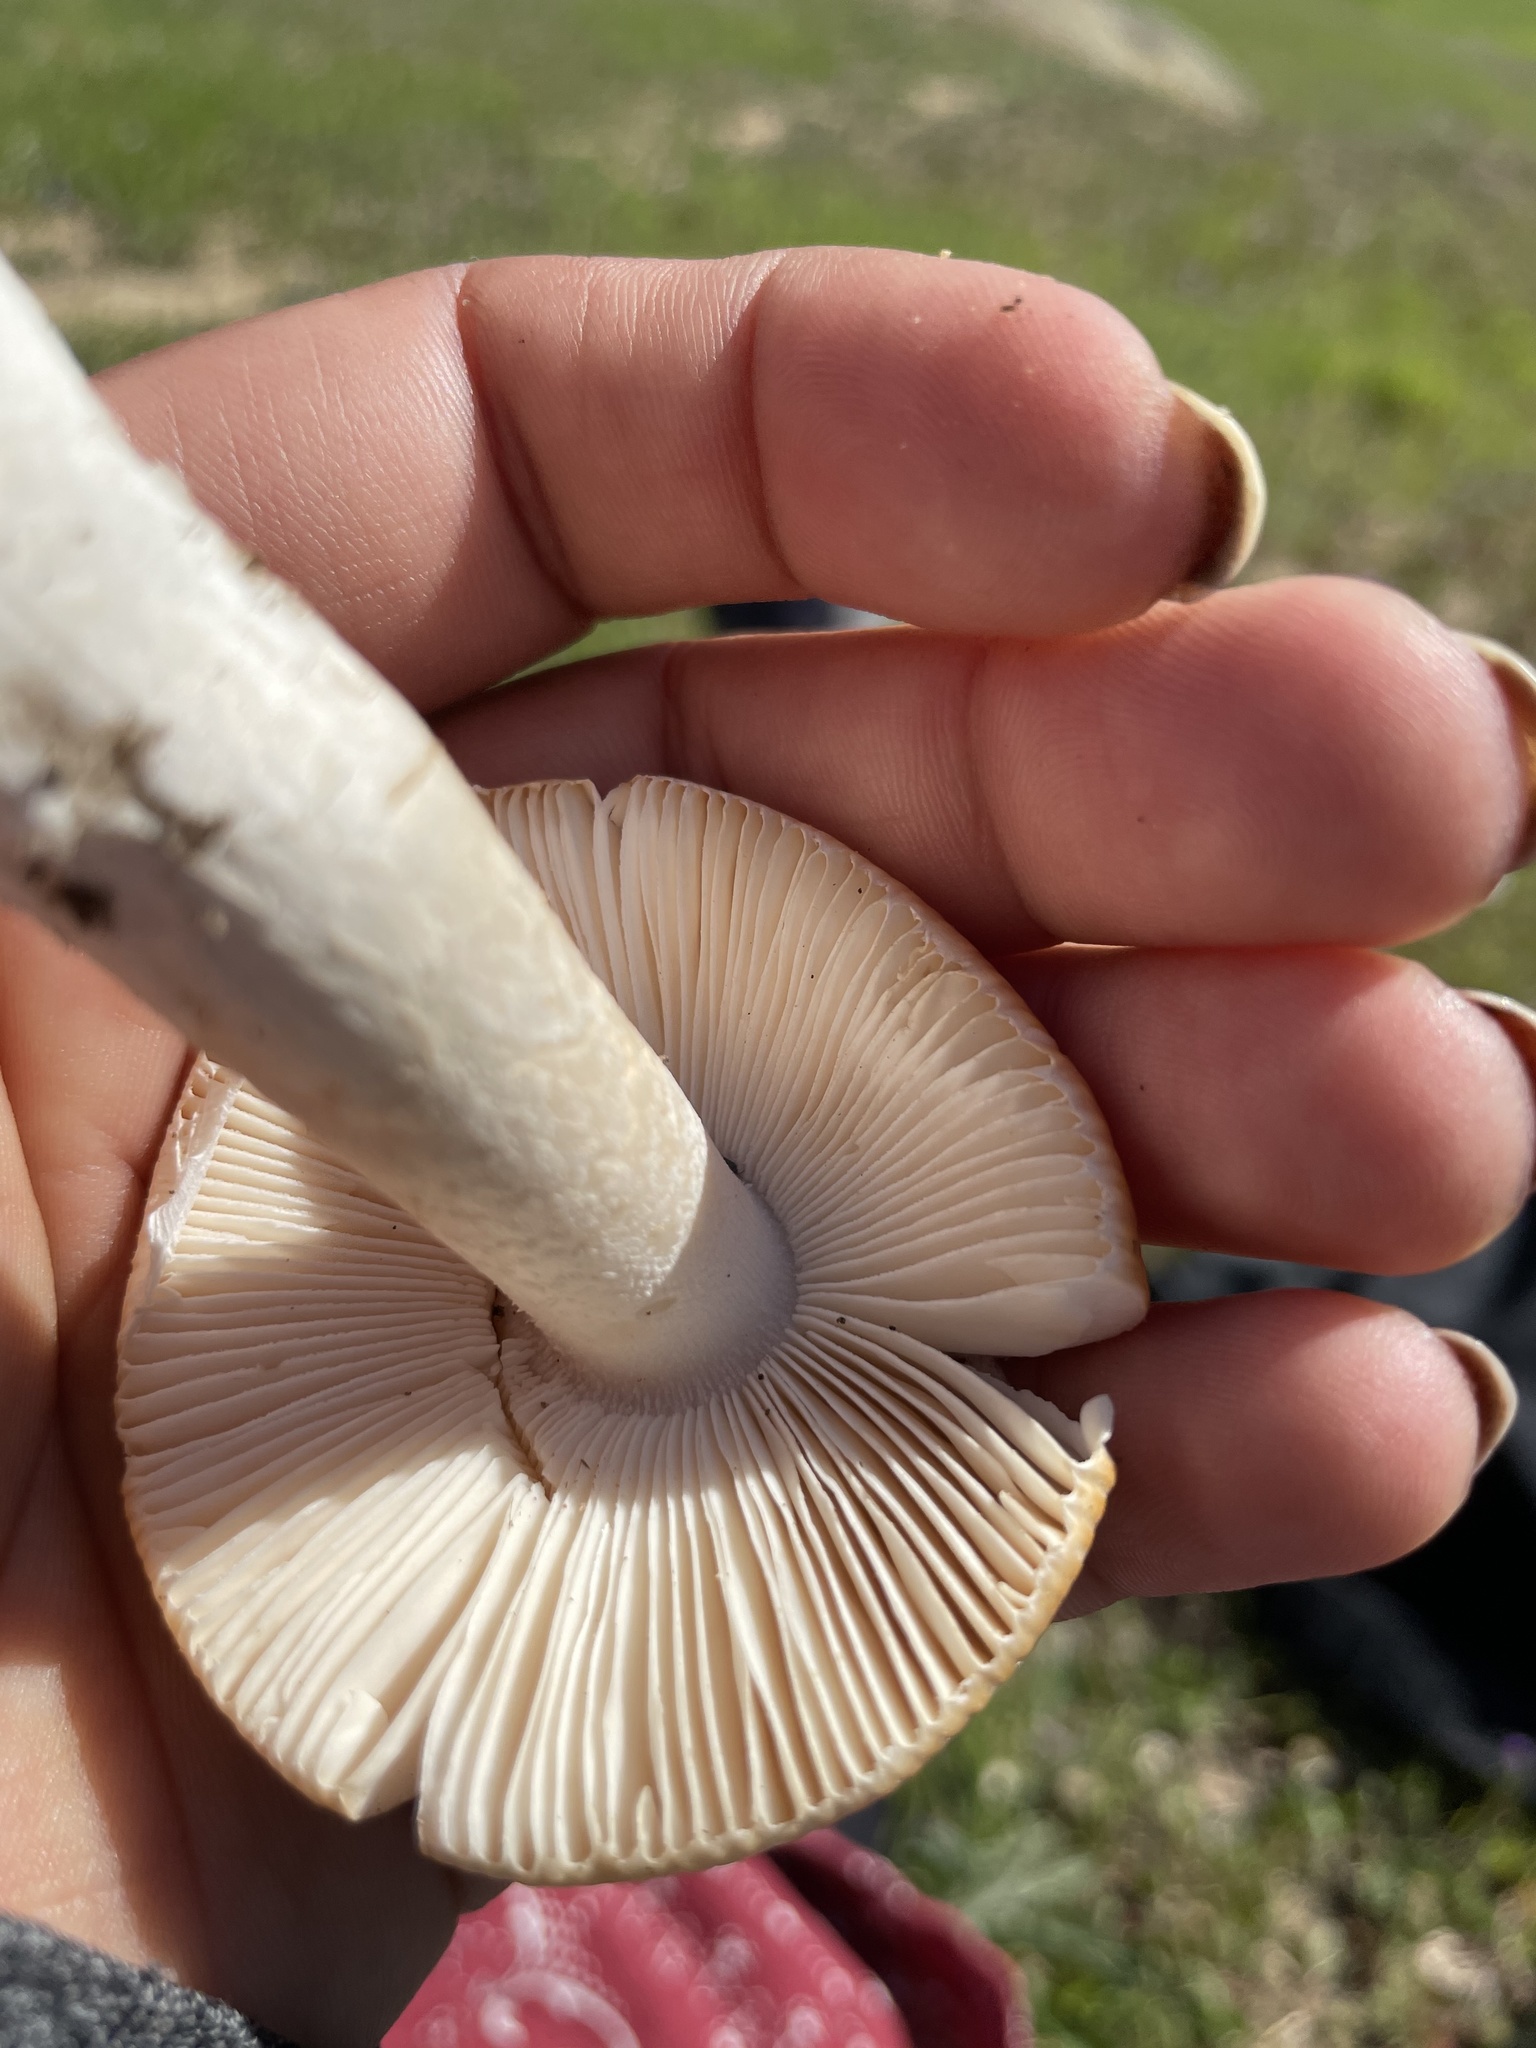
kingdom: Fungi
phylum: Basidiomycota
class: Agaricomycetes
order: Agaricales
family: Amanitaceae
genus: Amanita
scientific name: Amanita velosa
